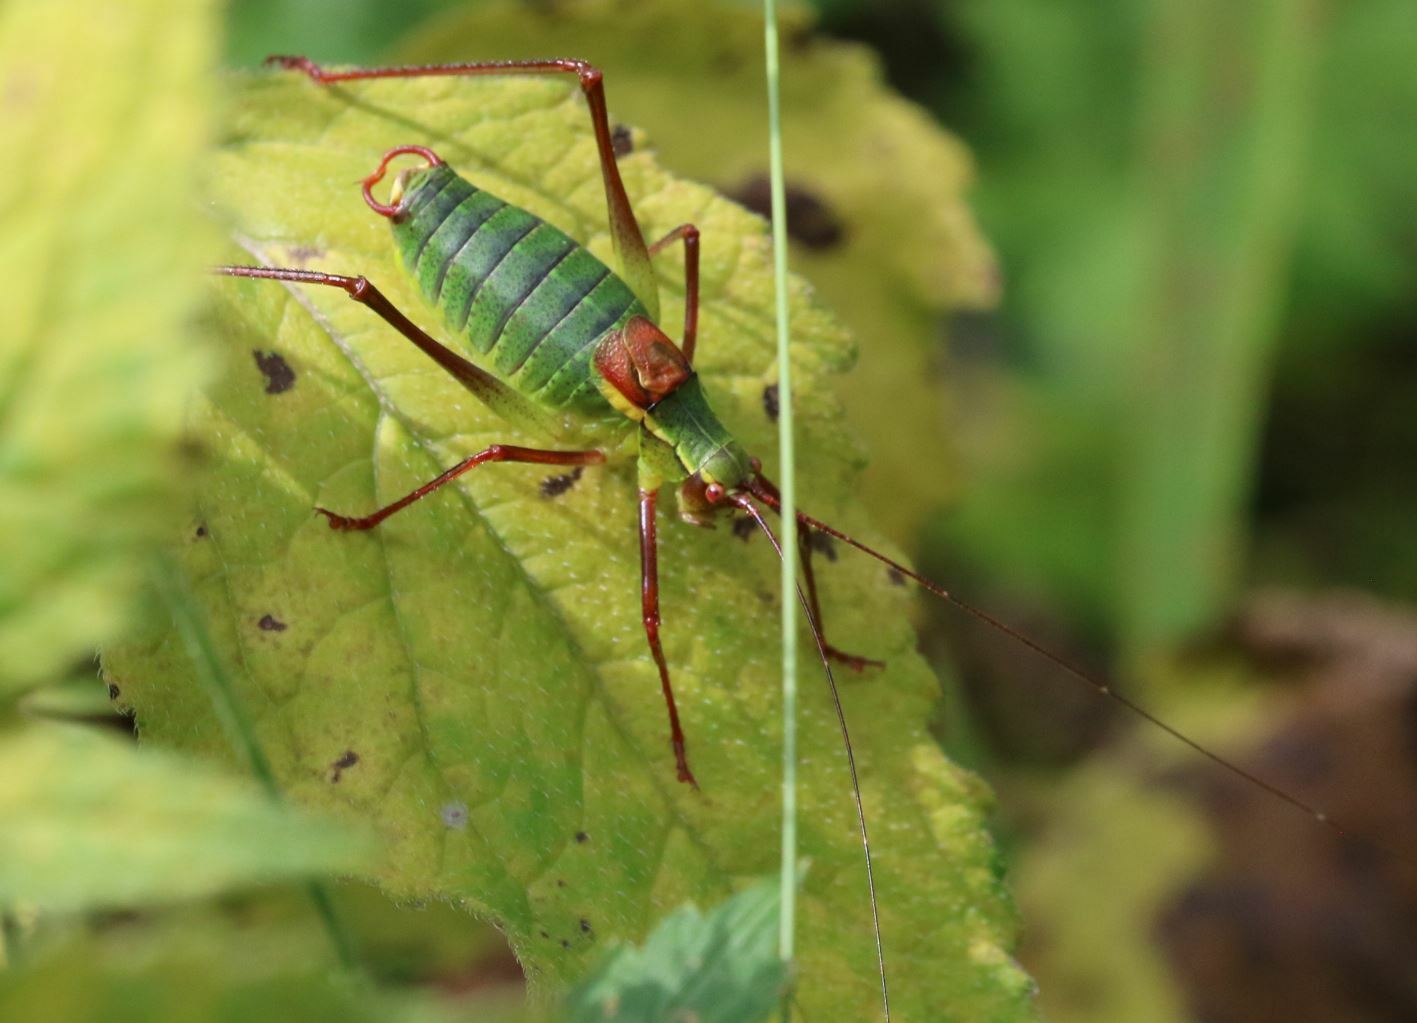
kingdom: Animalia
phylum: Arthropoda
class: Insecta
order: Orthoptera
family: Tettigoniidae
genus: Barbitistes
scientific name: Barbitistes serricauda
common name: Saw-tailed bush-cricket
